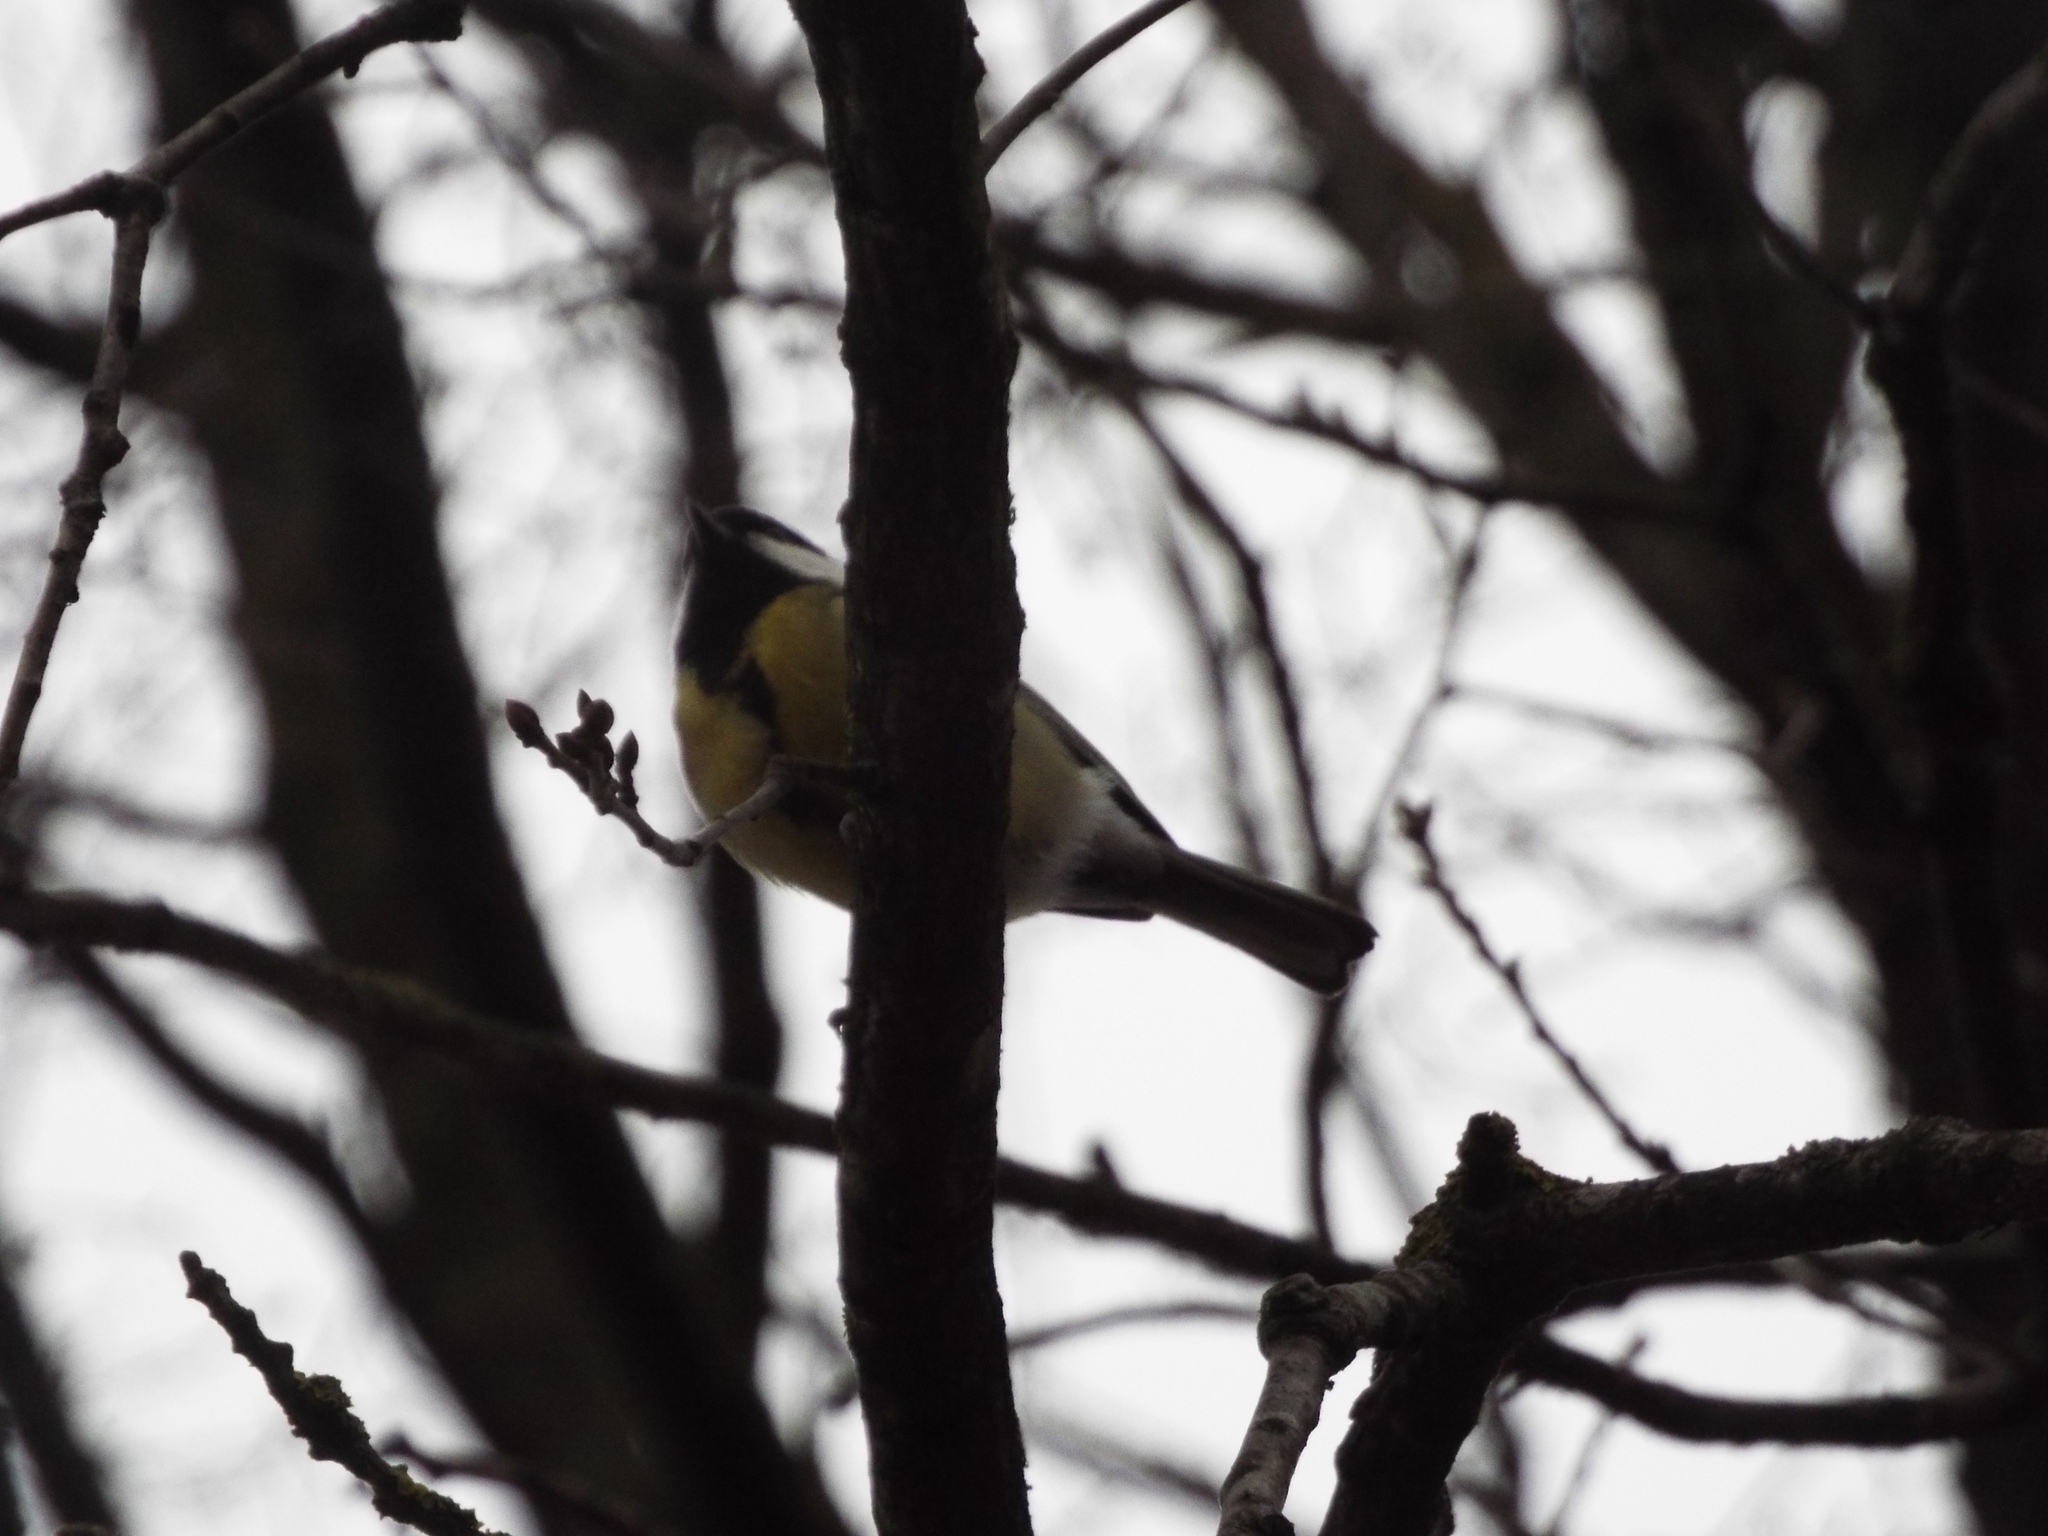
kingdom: Animalia
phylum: Chordata
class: Aves
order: Passeriformes
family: Paridae
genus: Parus
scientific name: Parus major
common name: Great tit
